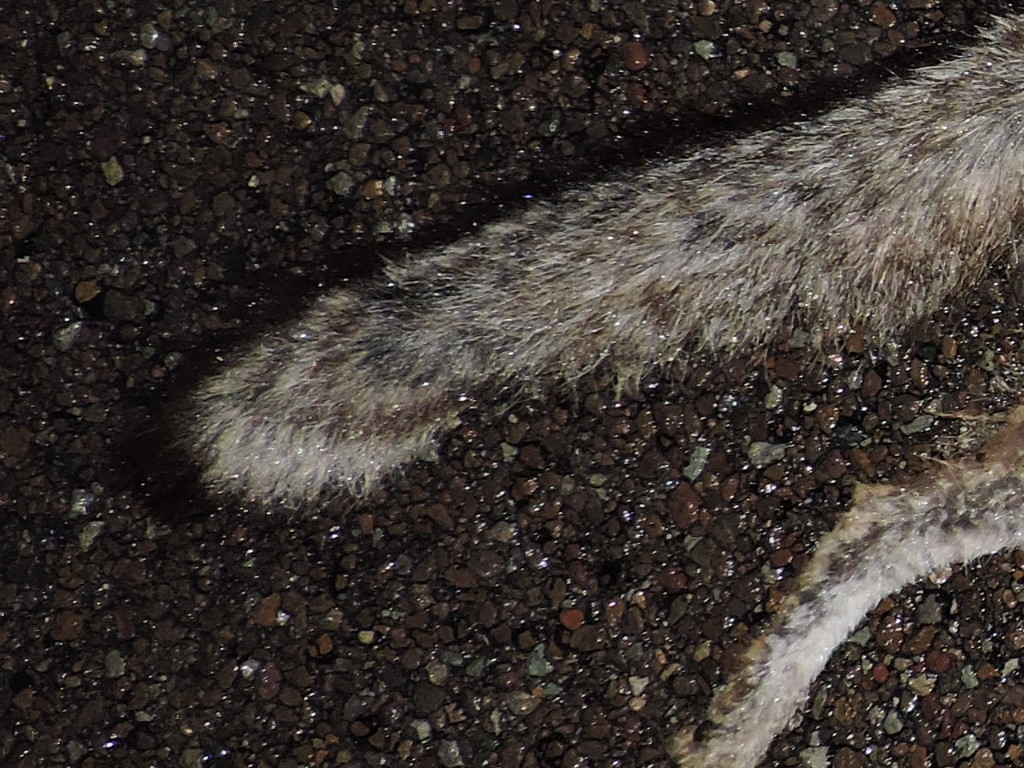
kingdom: Animalia
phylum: Chordata
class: Mammalia
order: Carnivora
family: Canidae
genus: Urocyon
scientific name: Urocyon cinereoargenteus
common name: Gray fox
